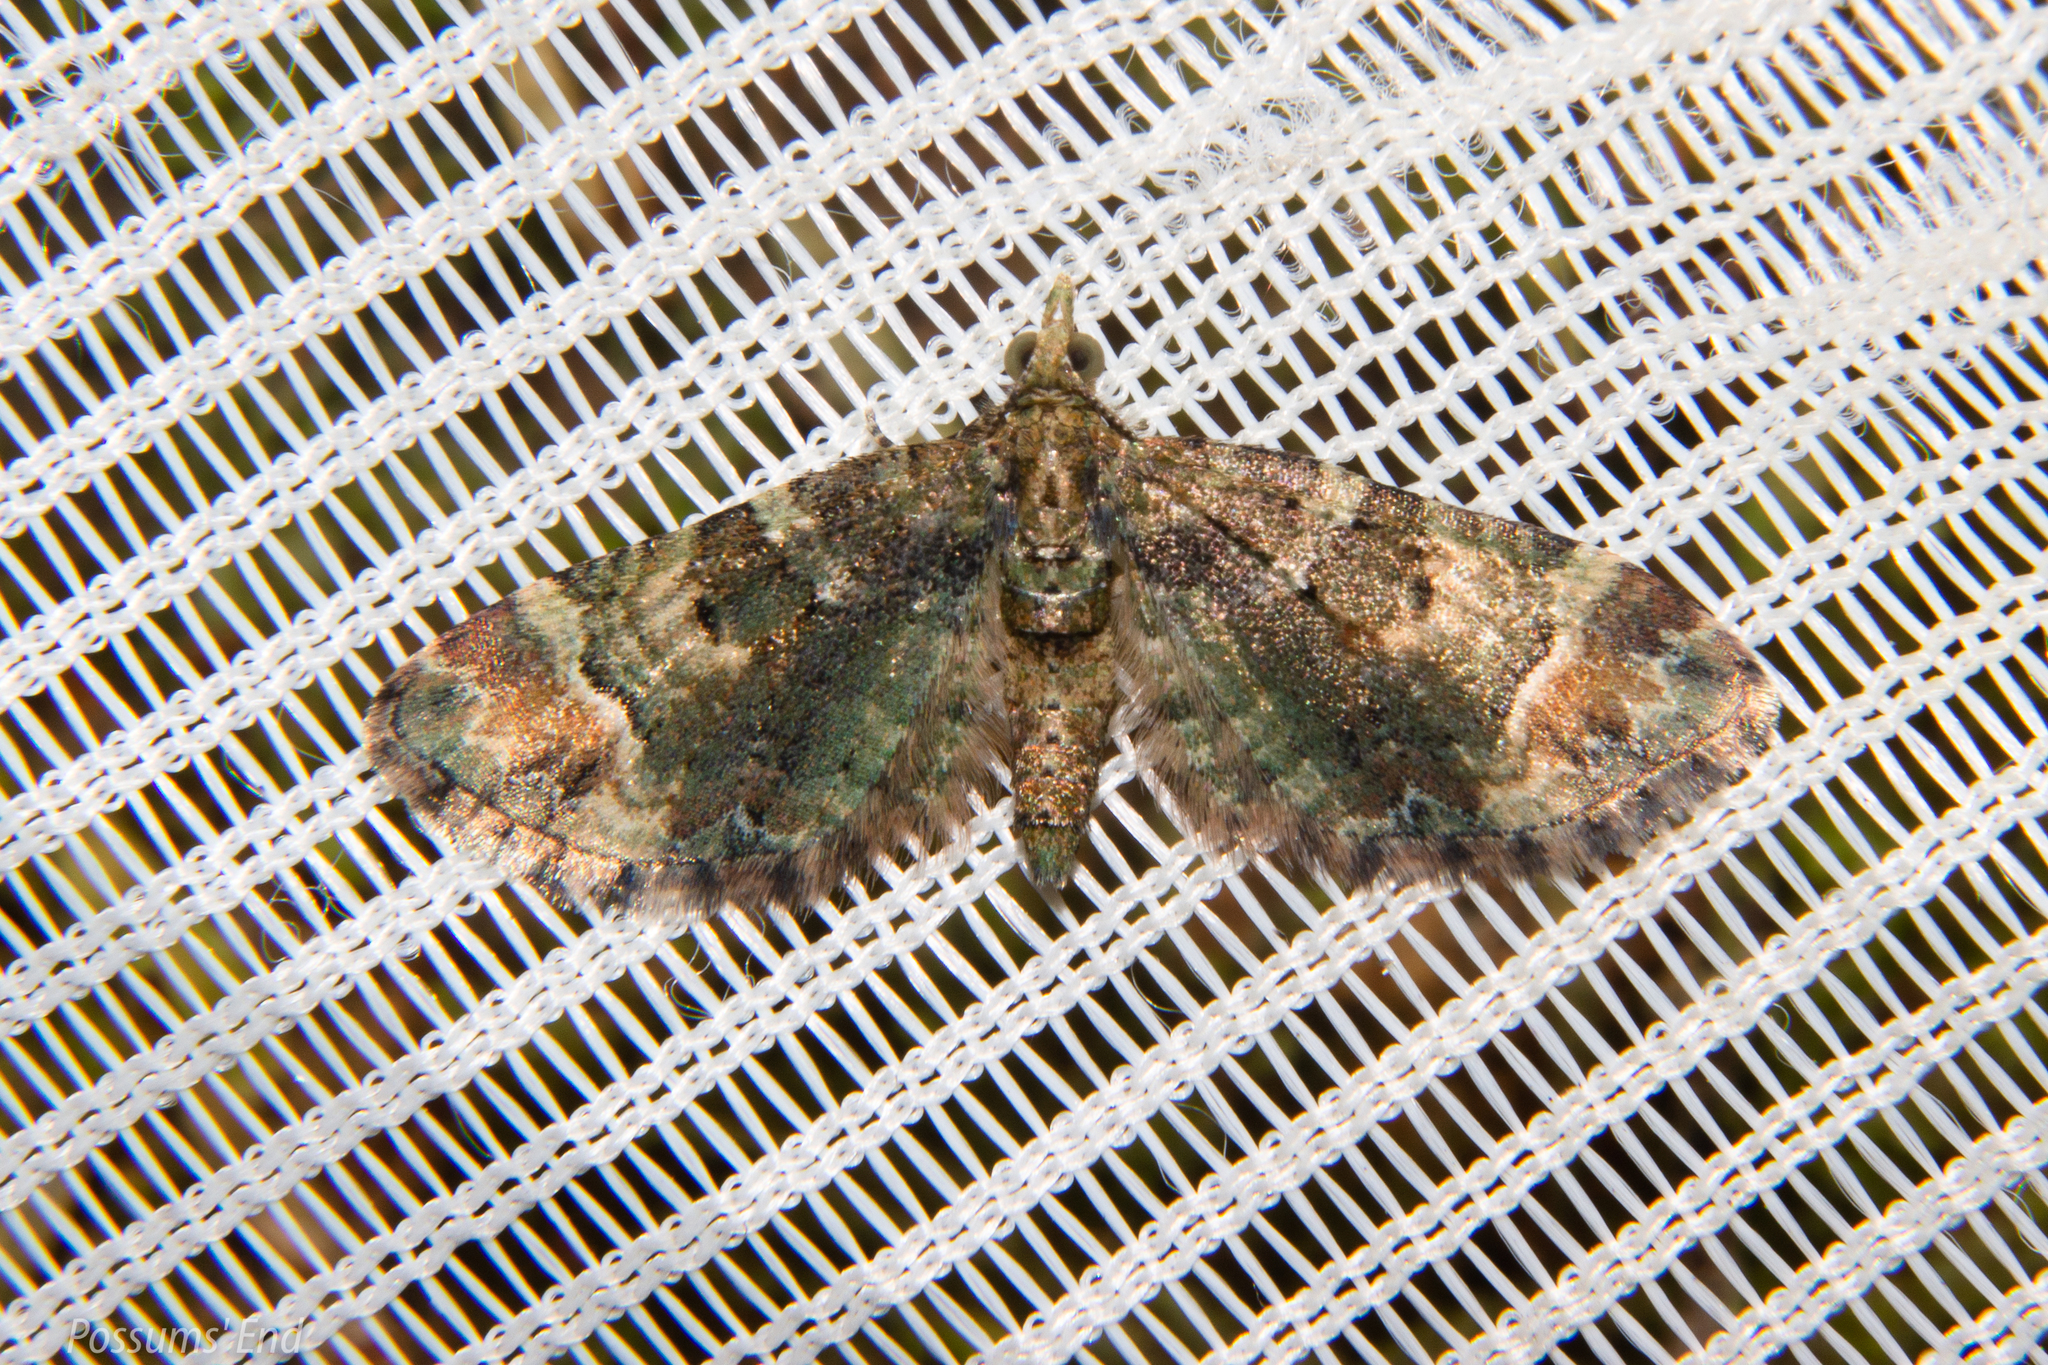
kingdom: Animalia
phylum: Arthropoda
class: Insecta
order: Lepidoptera
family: Geometridae
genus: Idaea
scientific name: Idaea mutanda
